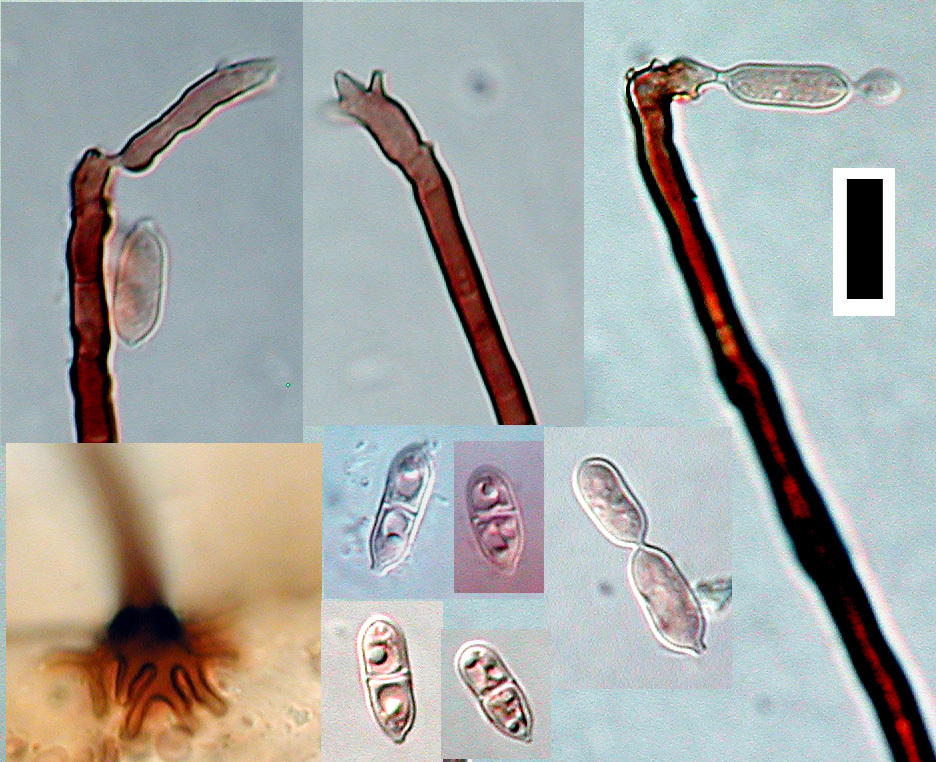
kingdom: Fungi
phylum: Ascomycota
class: Dothideomycetes
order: Venturiales
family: Venturiaceae
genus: Anungitea
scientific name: Anungitea heterospora
